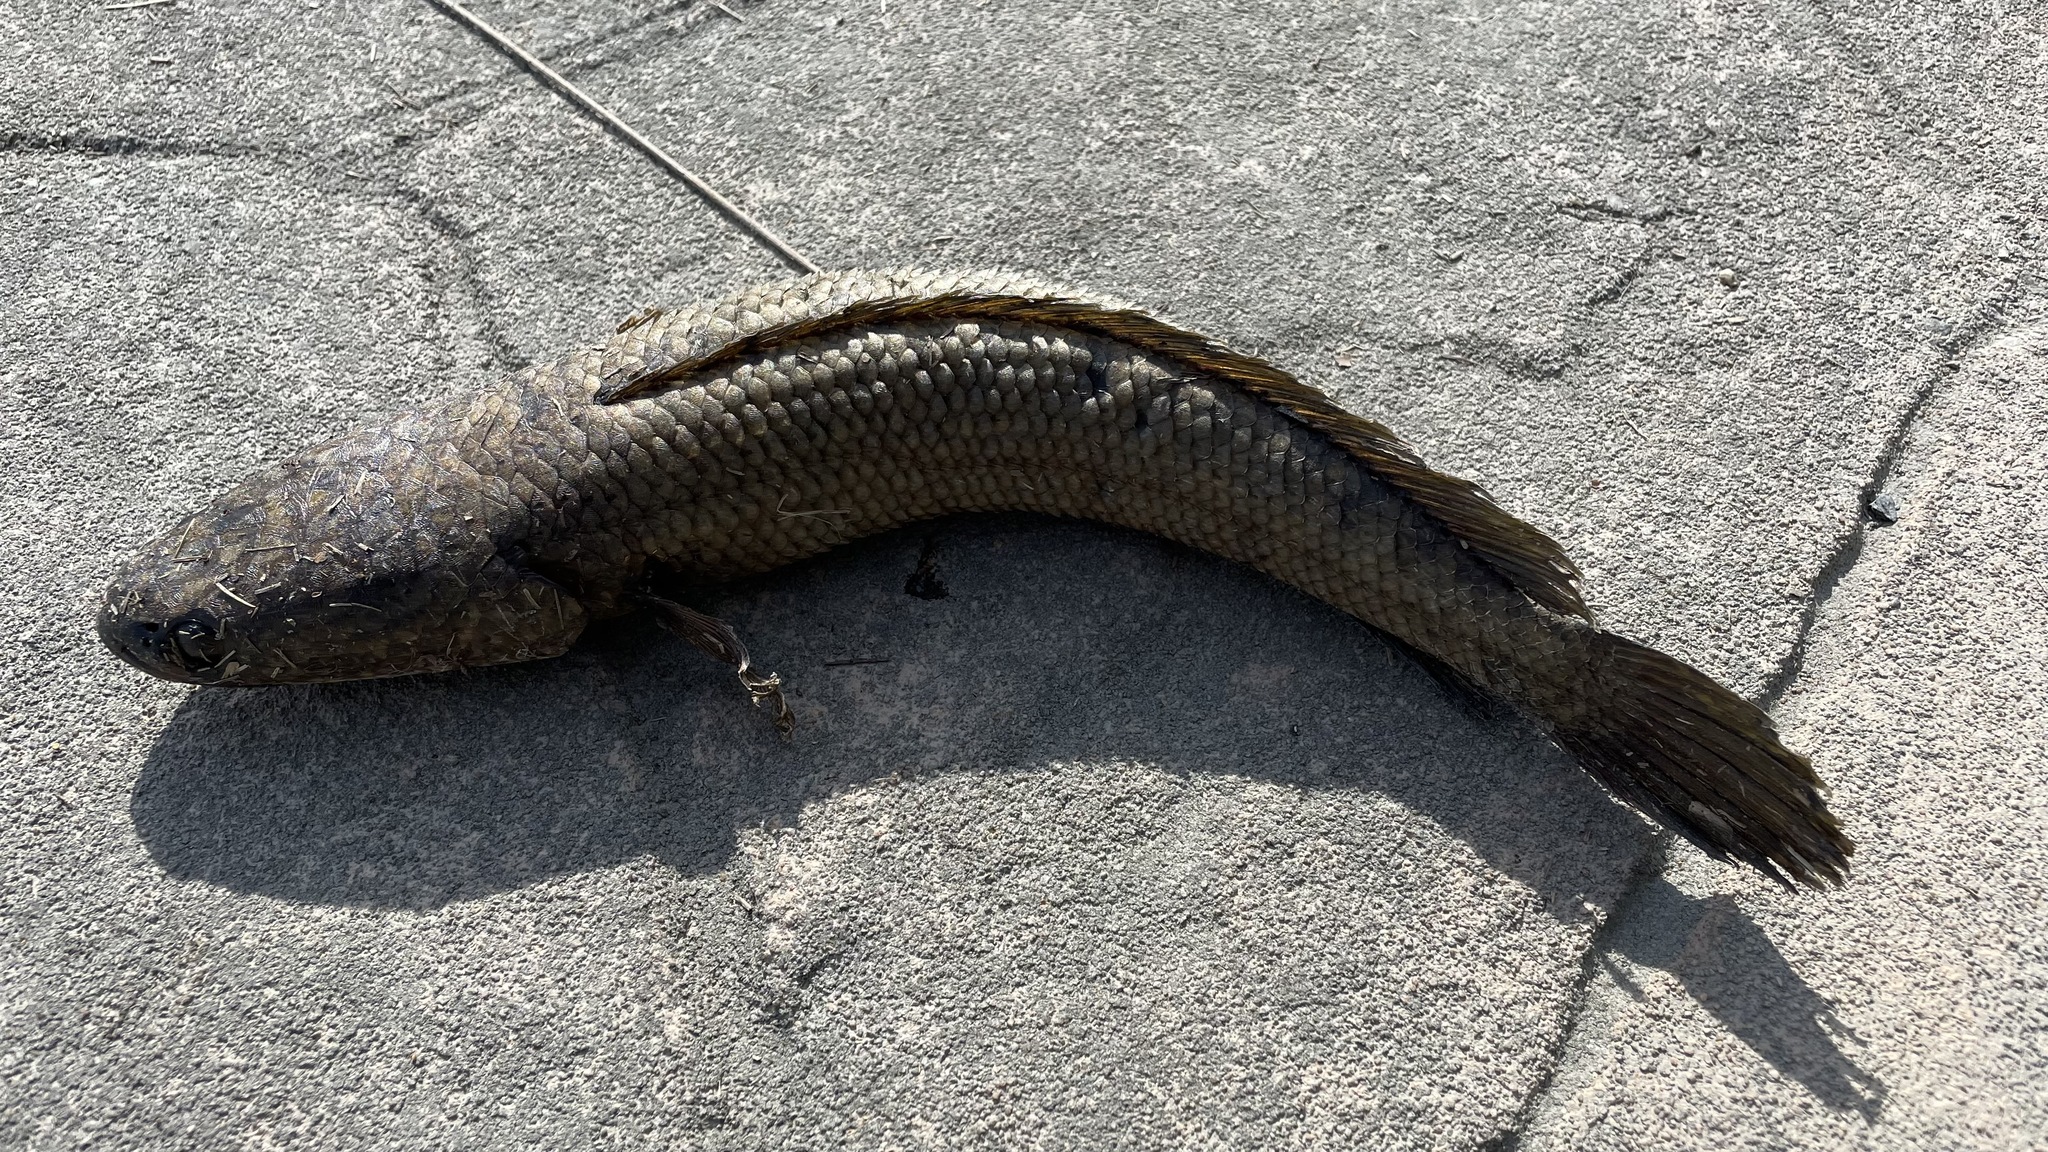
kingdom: Animalia
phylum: Chordata
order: Perciformes
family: Channidae
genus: Channa
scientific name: Channa striata
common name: Striped snakehead
